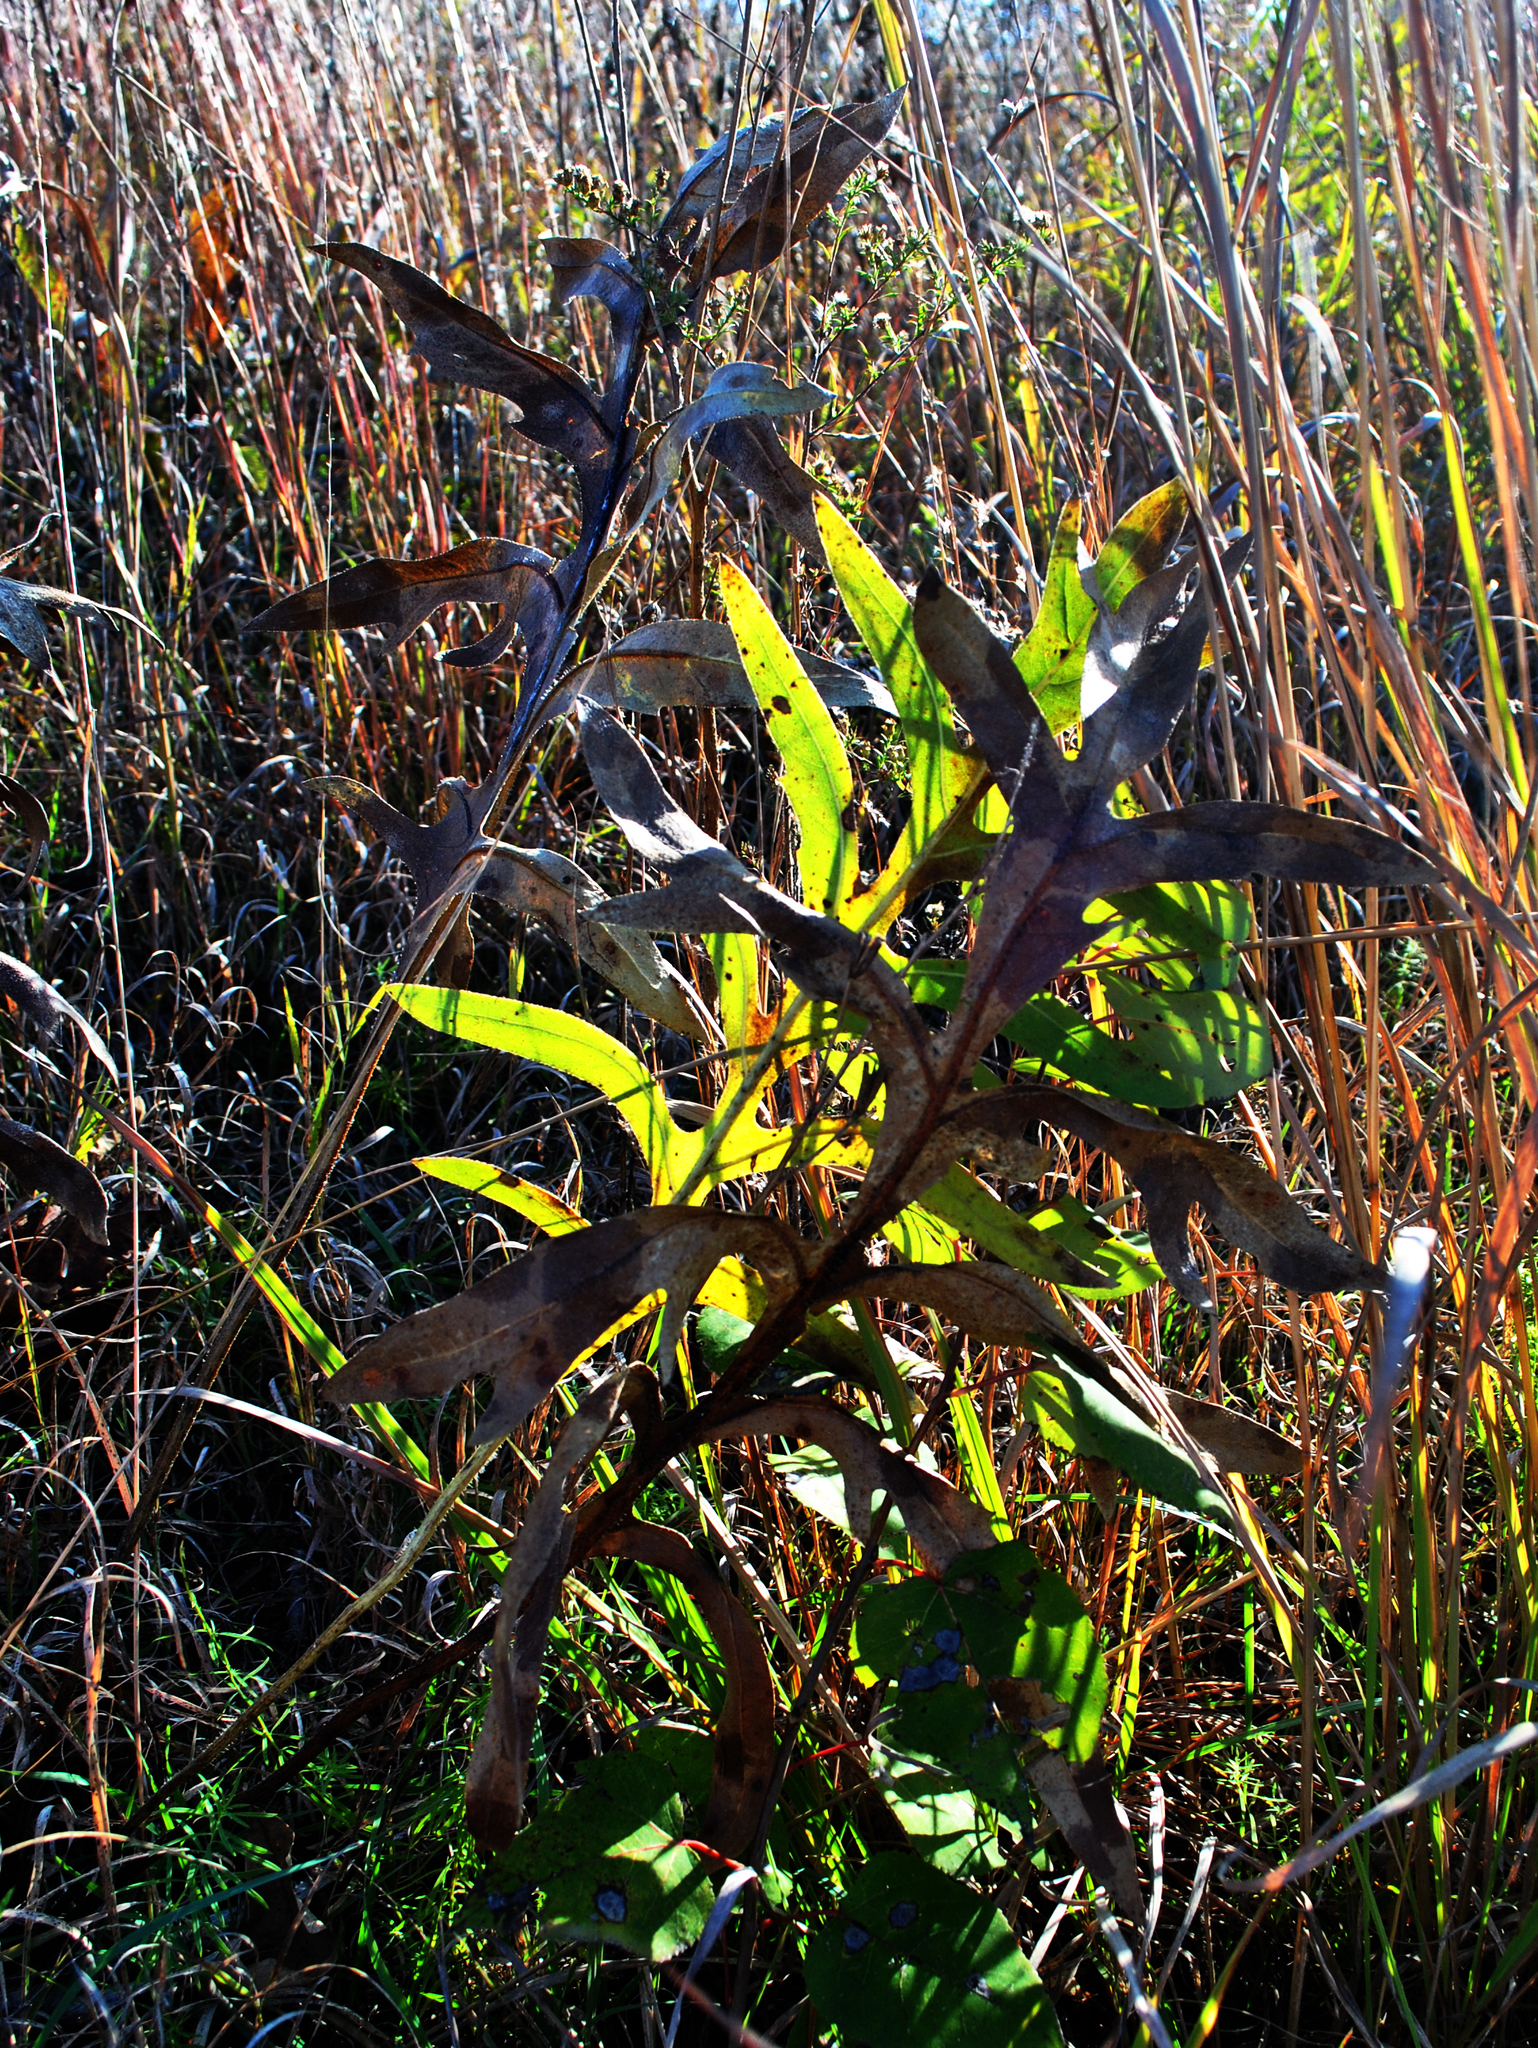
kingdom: Plantae
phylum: Tracheophyta
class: Magnoliopsida
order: Asterales
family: Asteraceae
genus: Silphium
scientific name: Silphium laciniatum
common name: Polarplant
